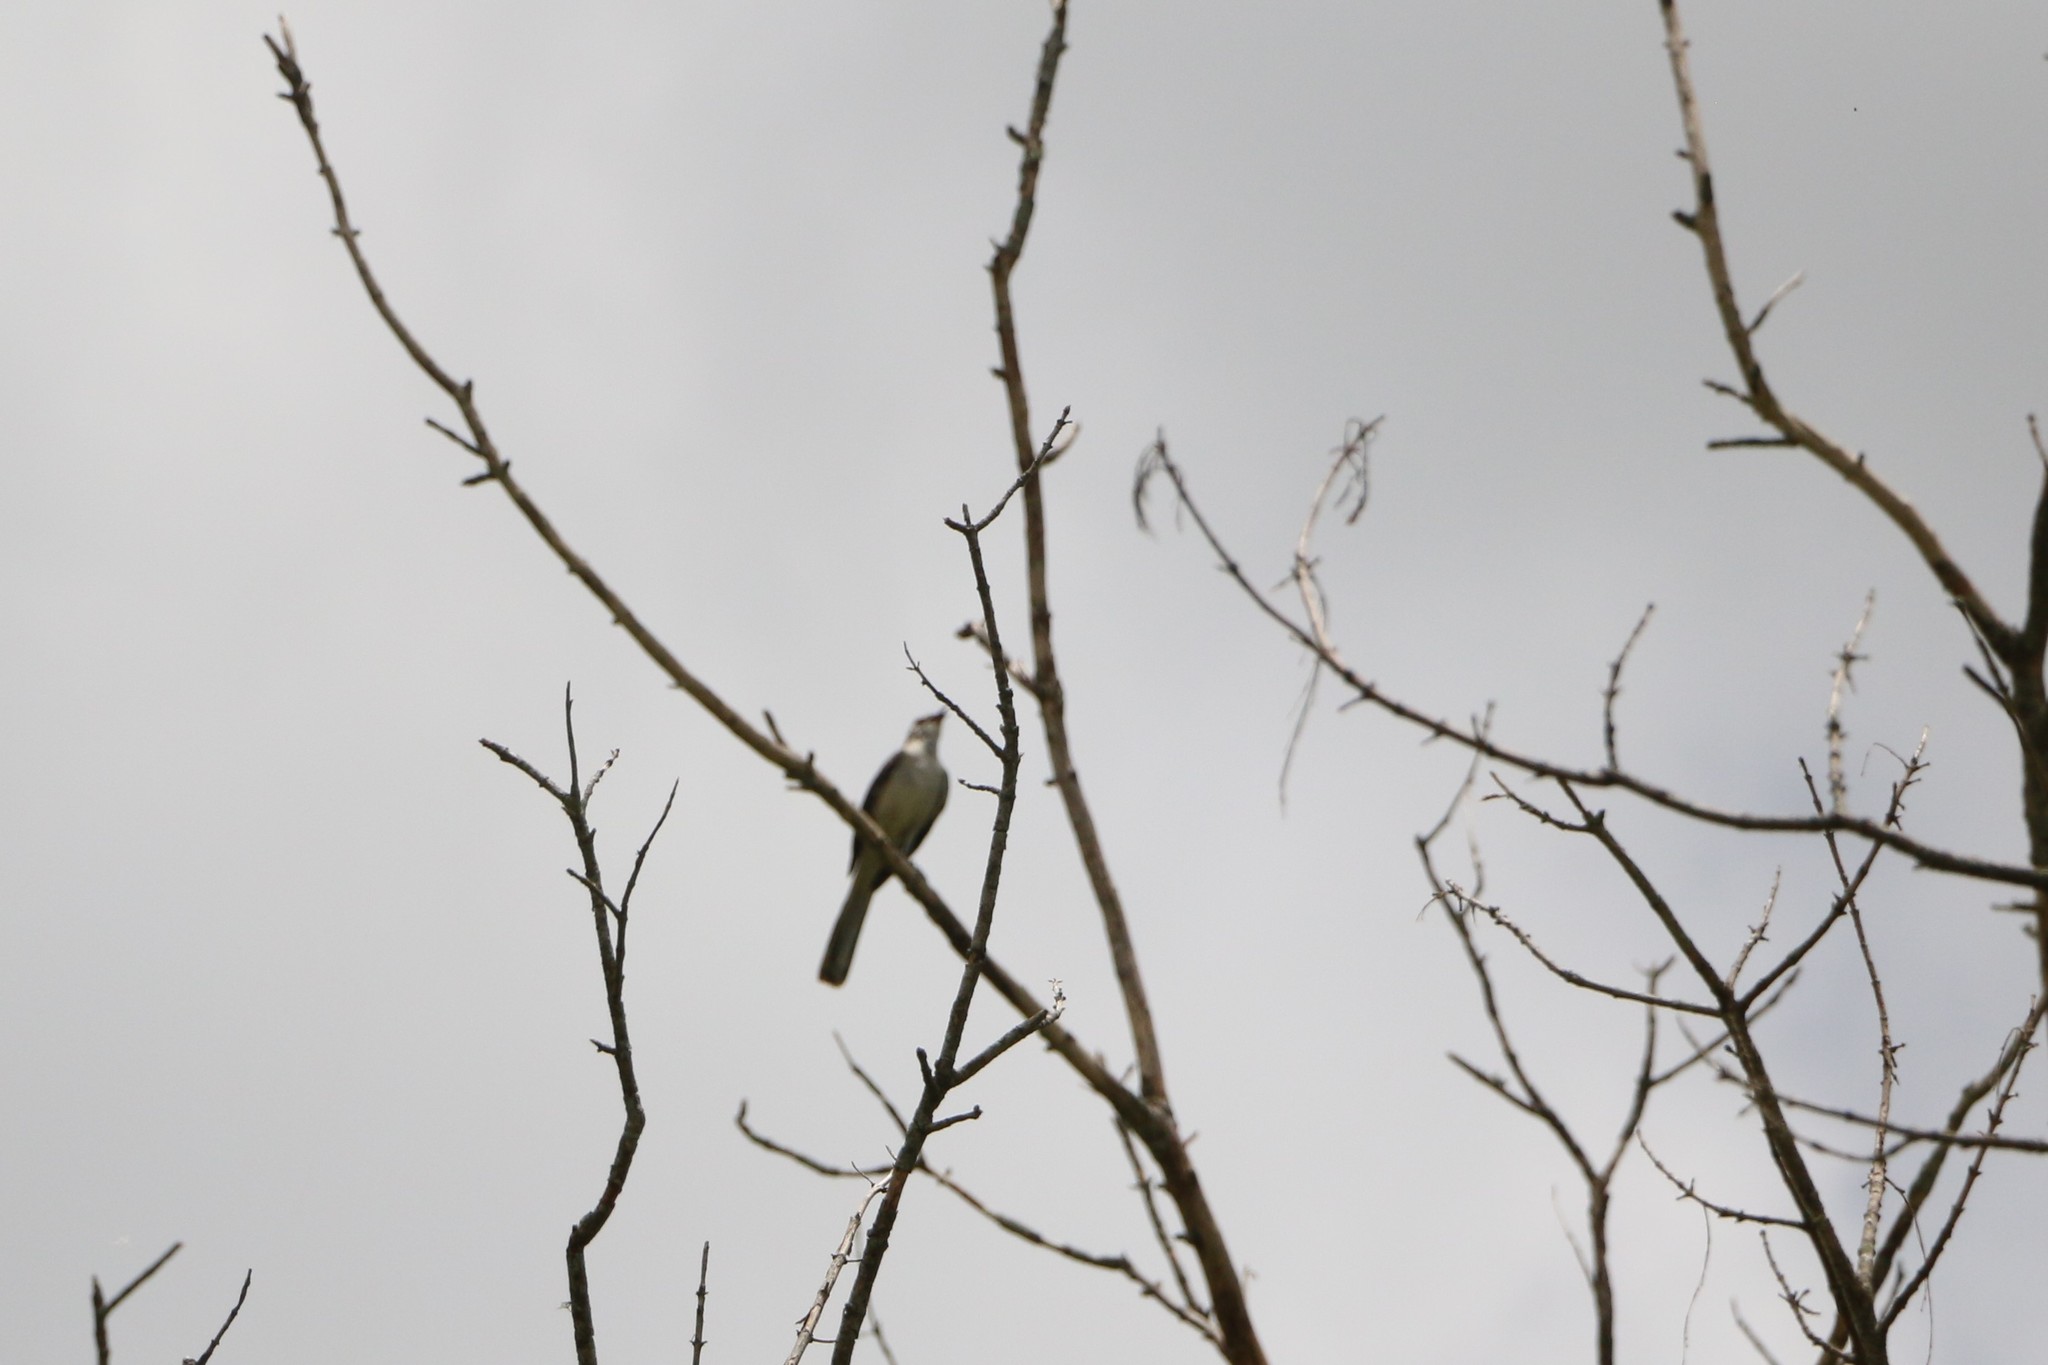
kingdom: Animalia
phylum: Chordata
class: Aves
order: Passeriformes
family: Mimidae
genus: Mimus
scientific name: Mimus polyglottos
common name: Northern mockingbird
